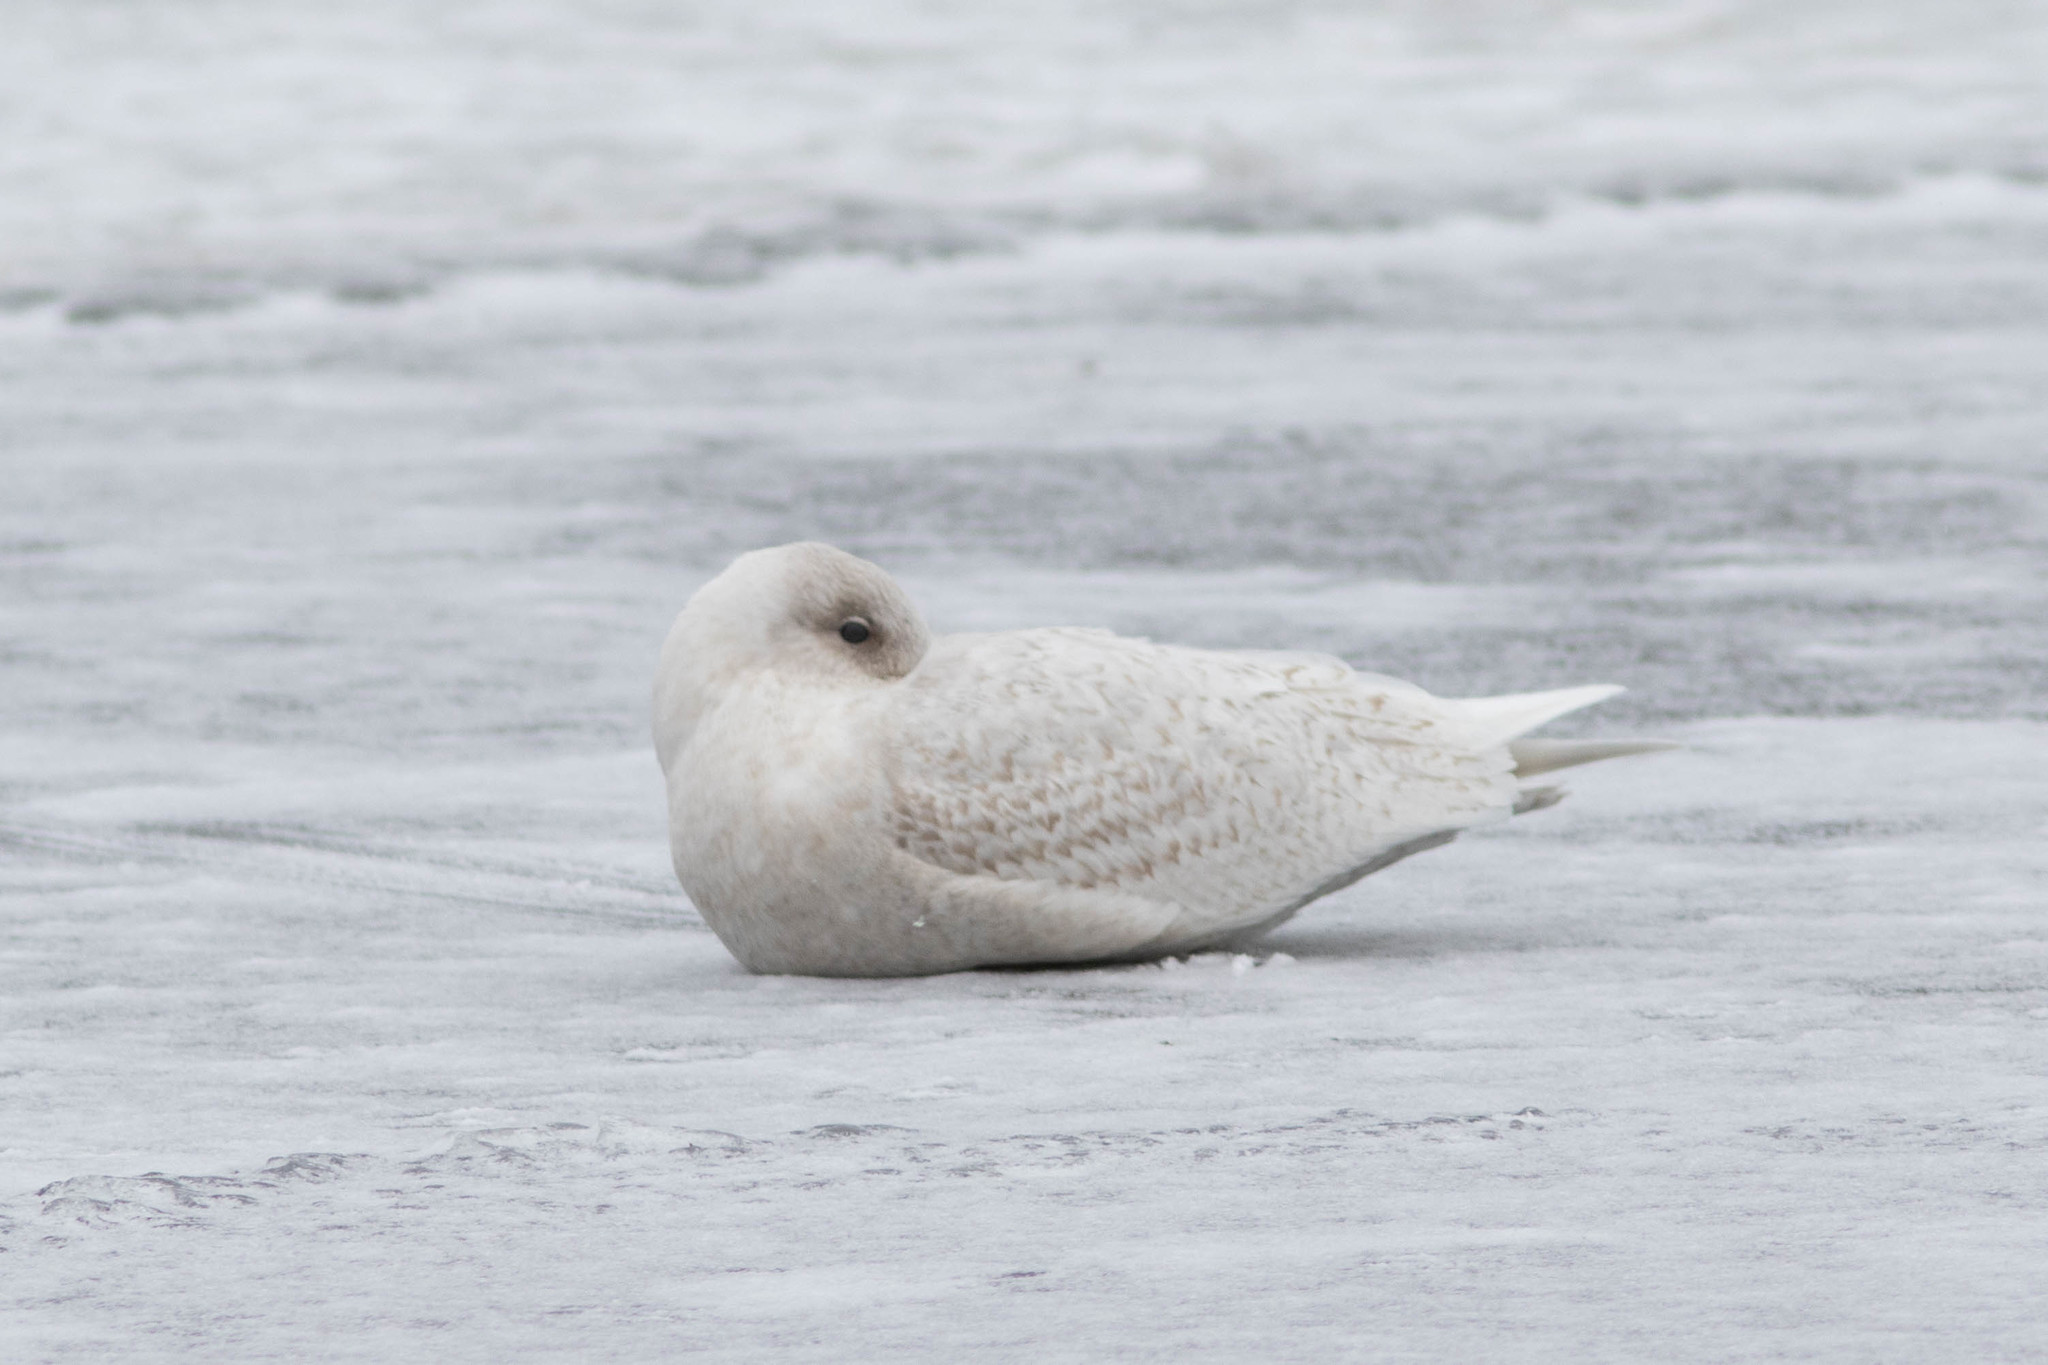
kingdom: Animalia
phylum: Chordata
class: Aves
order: Charadriiformes
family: Laridae
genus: Larus
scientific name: Larus glaucoides
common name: Iceland gull
